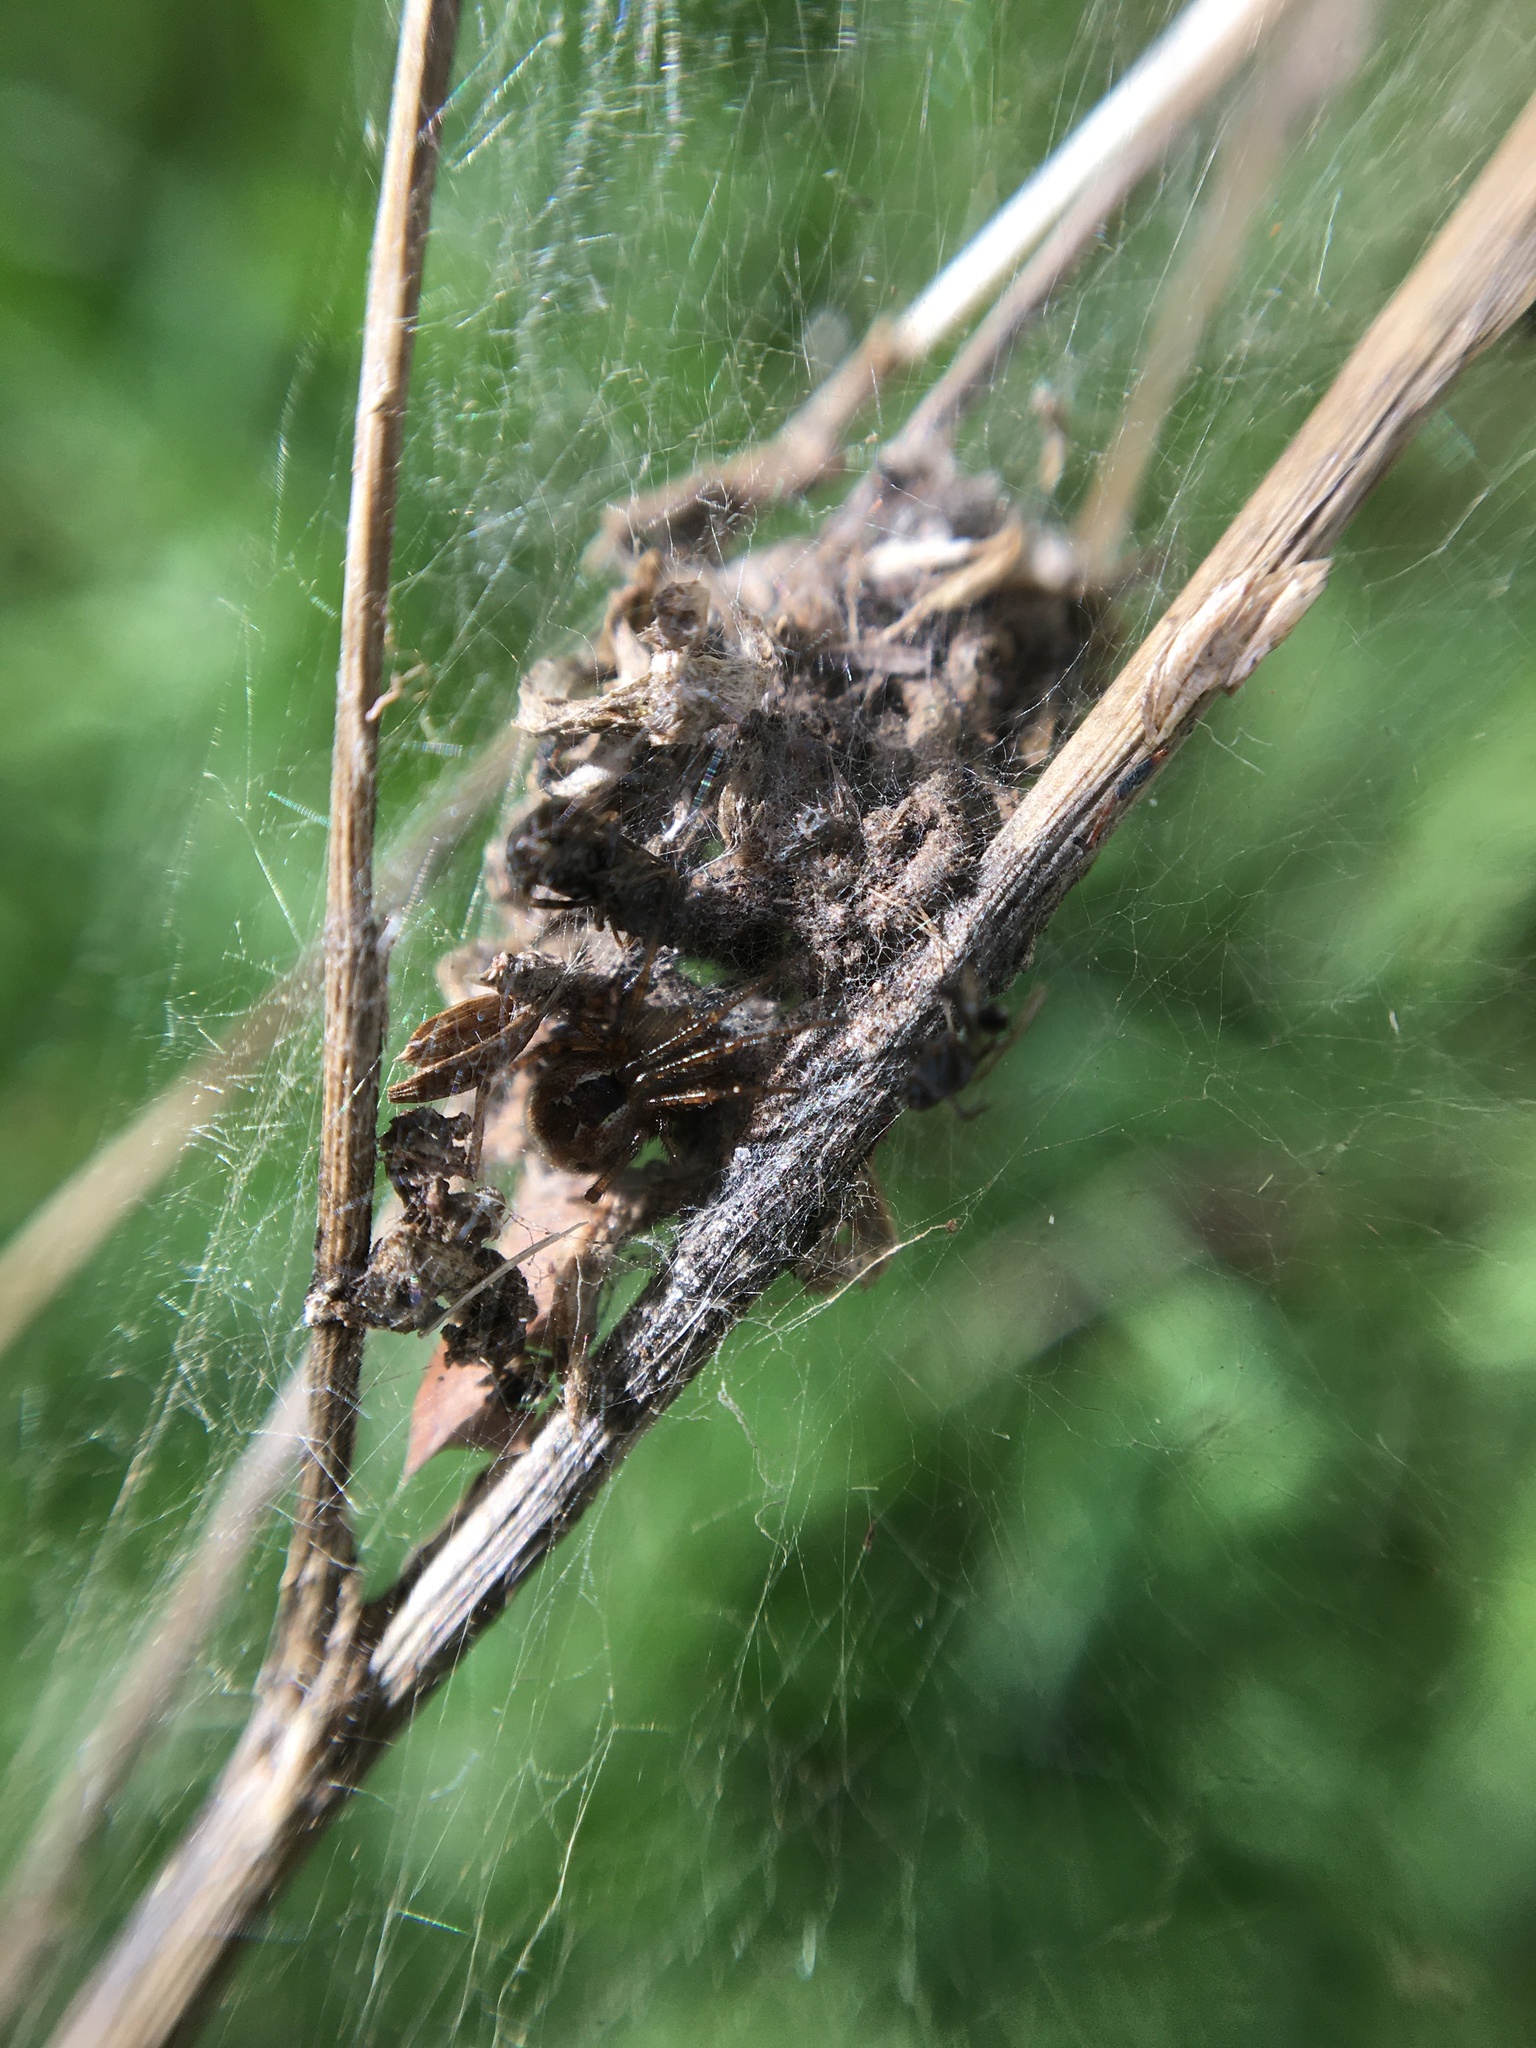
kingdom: Animalia
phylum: Arthropoda
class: Arachnida
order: Araneae
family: Theridiidae
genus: Kochiura
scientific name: Kochiura aulica
